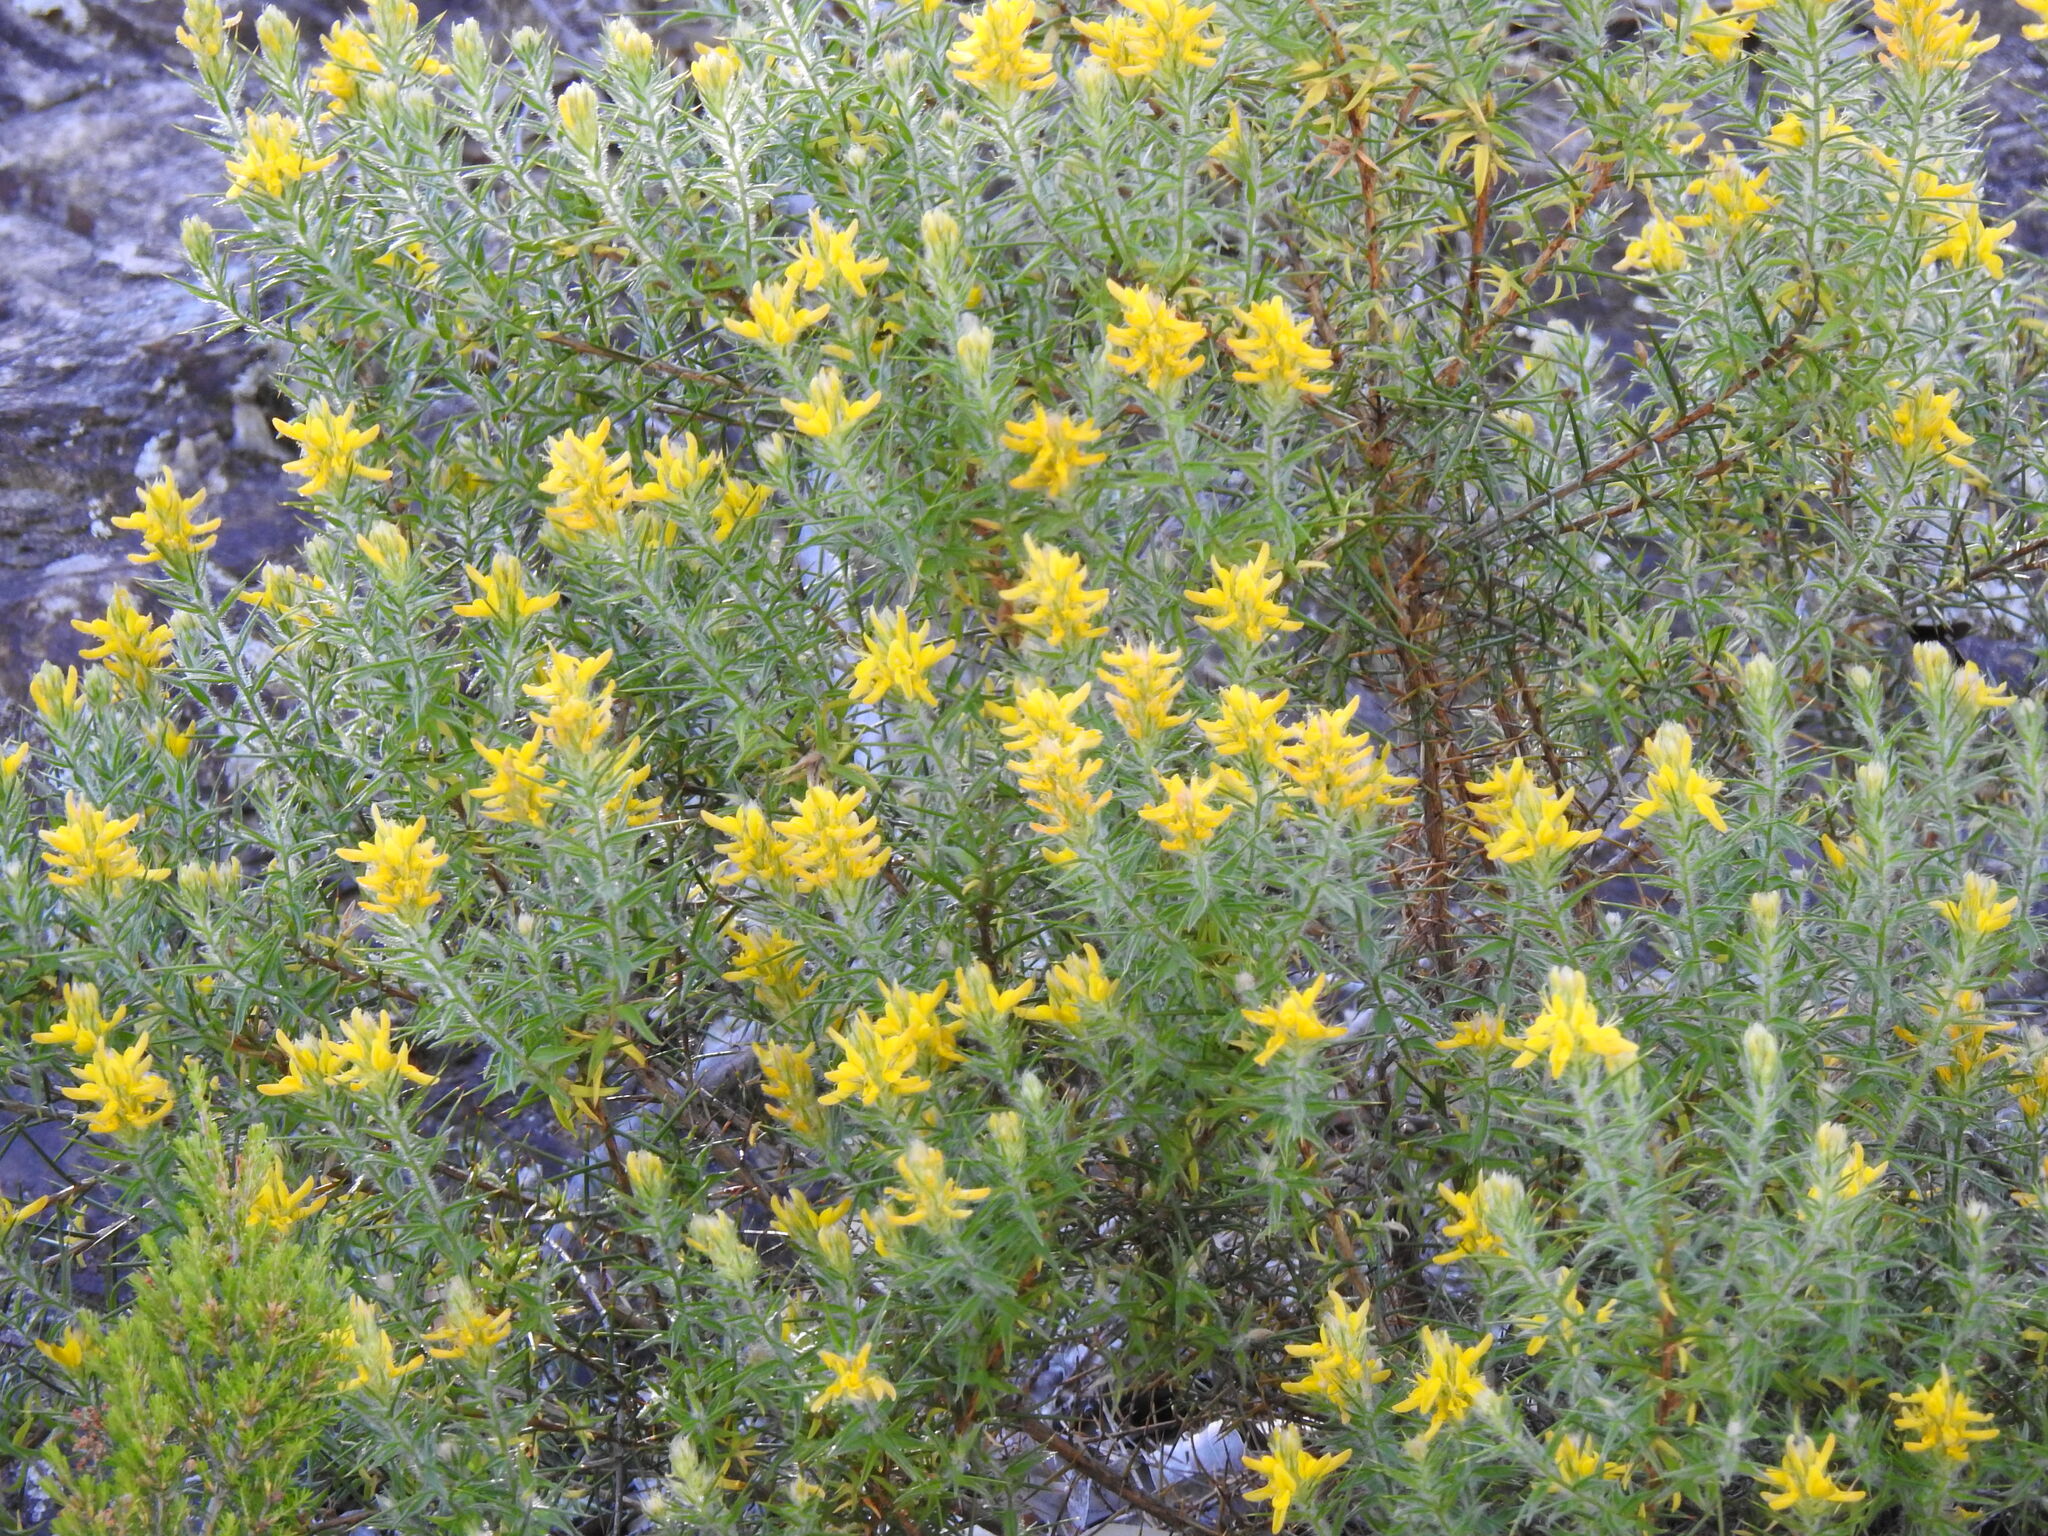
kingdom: Plantae
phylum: Tracheophyta
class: Magnoliopsida
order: Fabales
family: Fabaceae
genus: Genista
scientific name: Genista hirsuta
